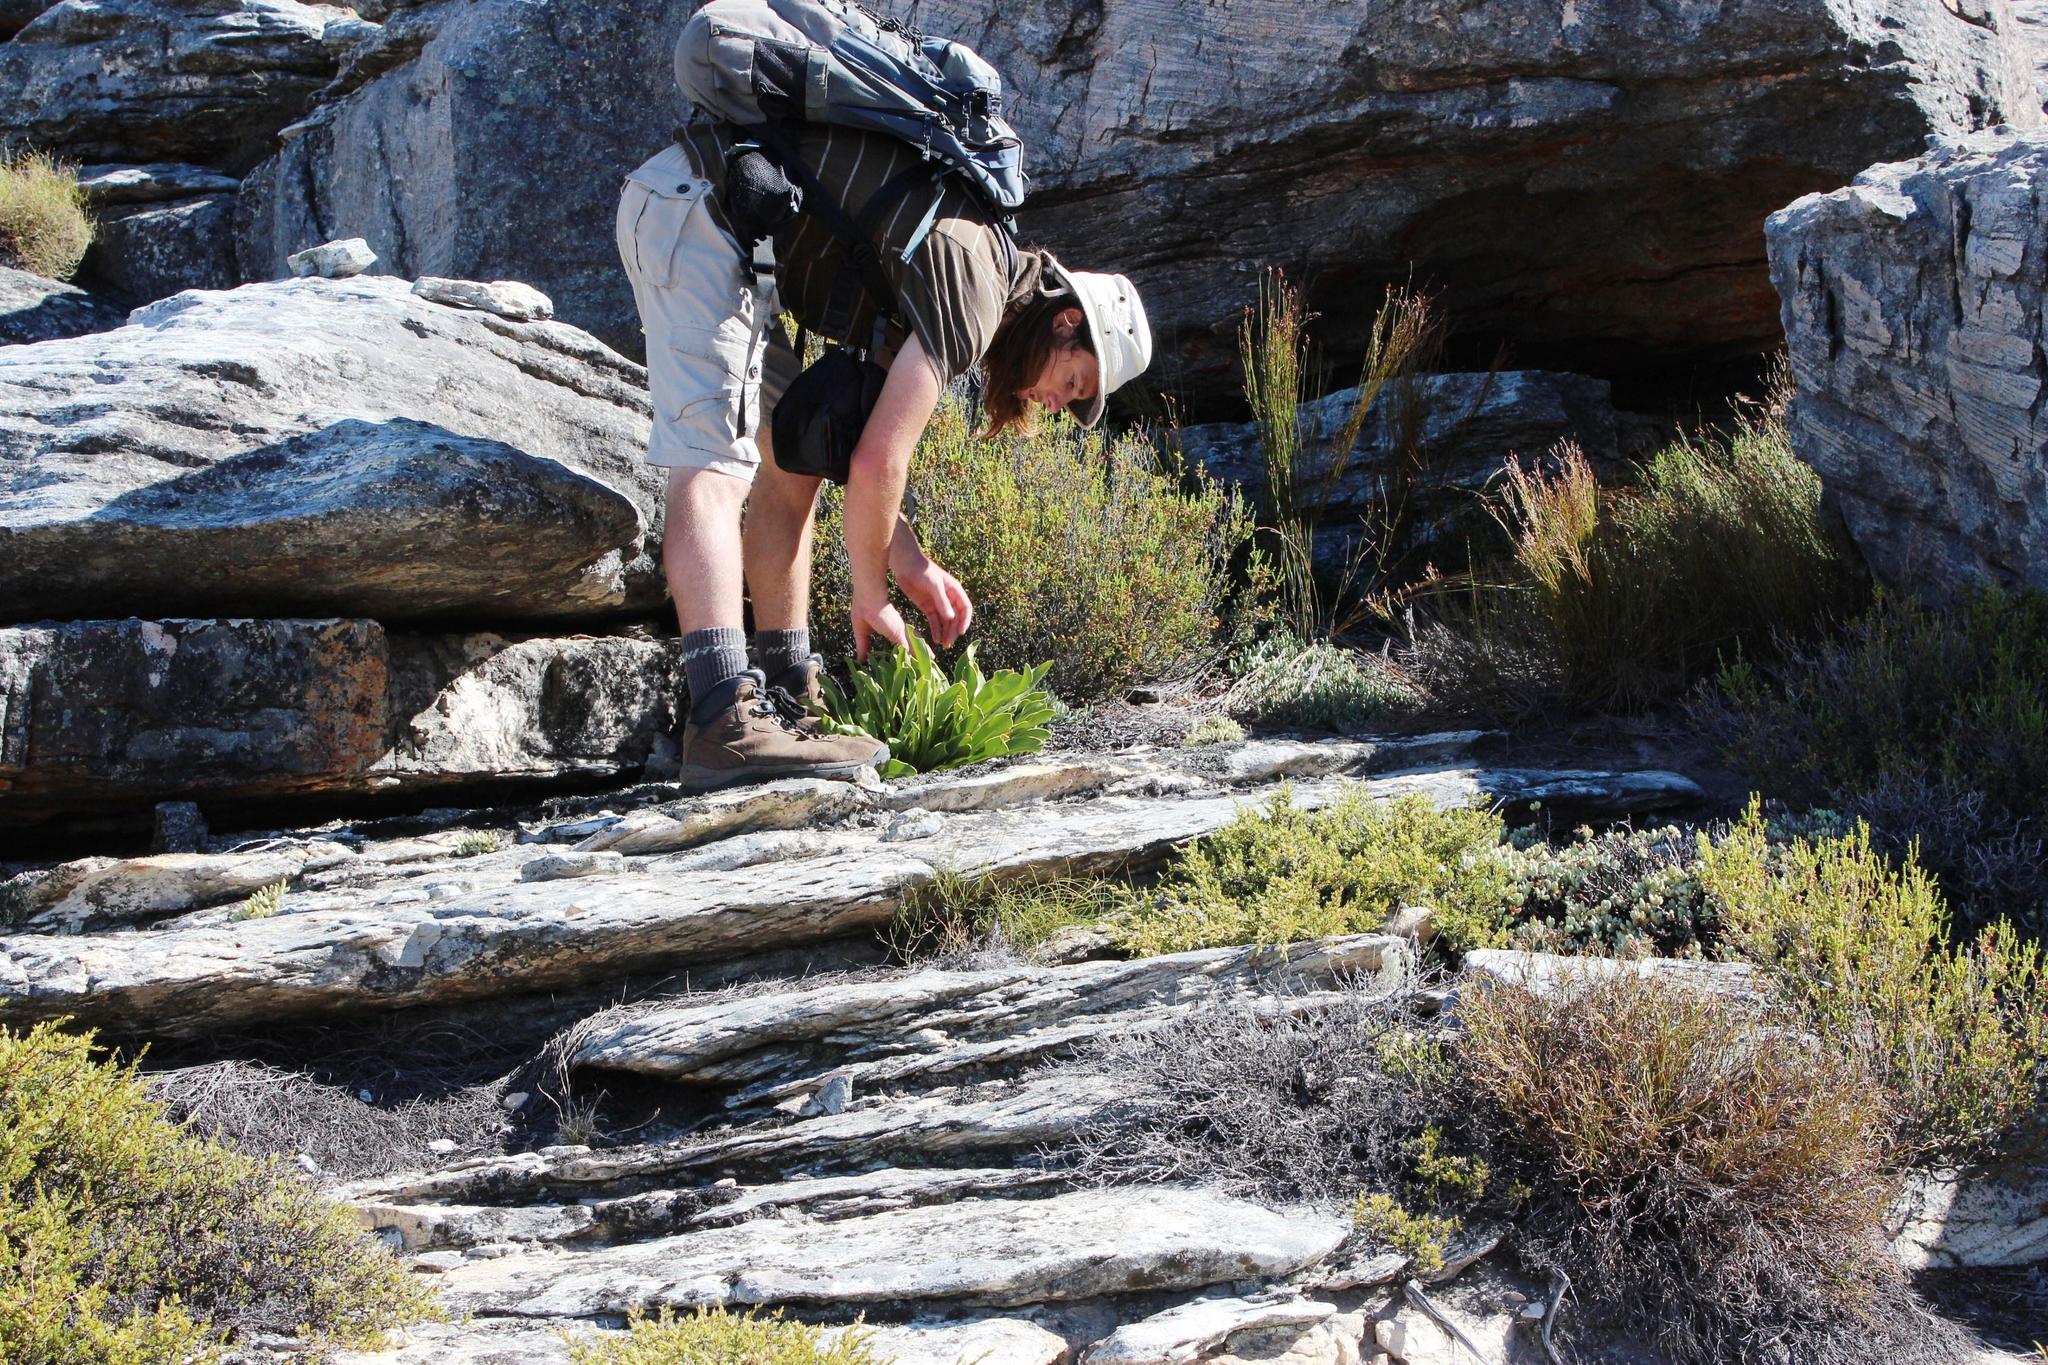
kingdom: Plantae
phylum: Tracheophyta
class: Magnoliopsida
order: Proteales
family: Proteaceae
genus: Protea
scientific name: Protea cryophila
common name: Snow protea
